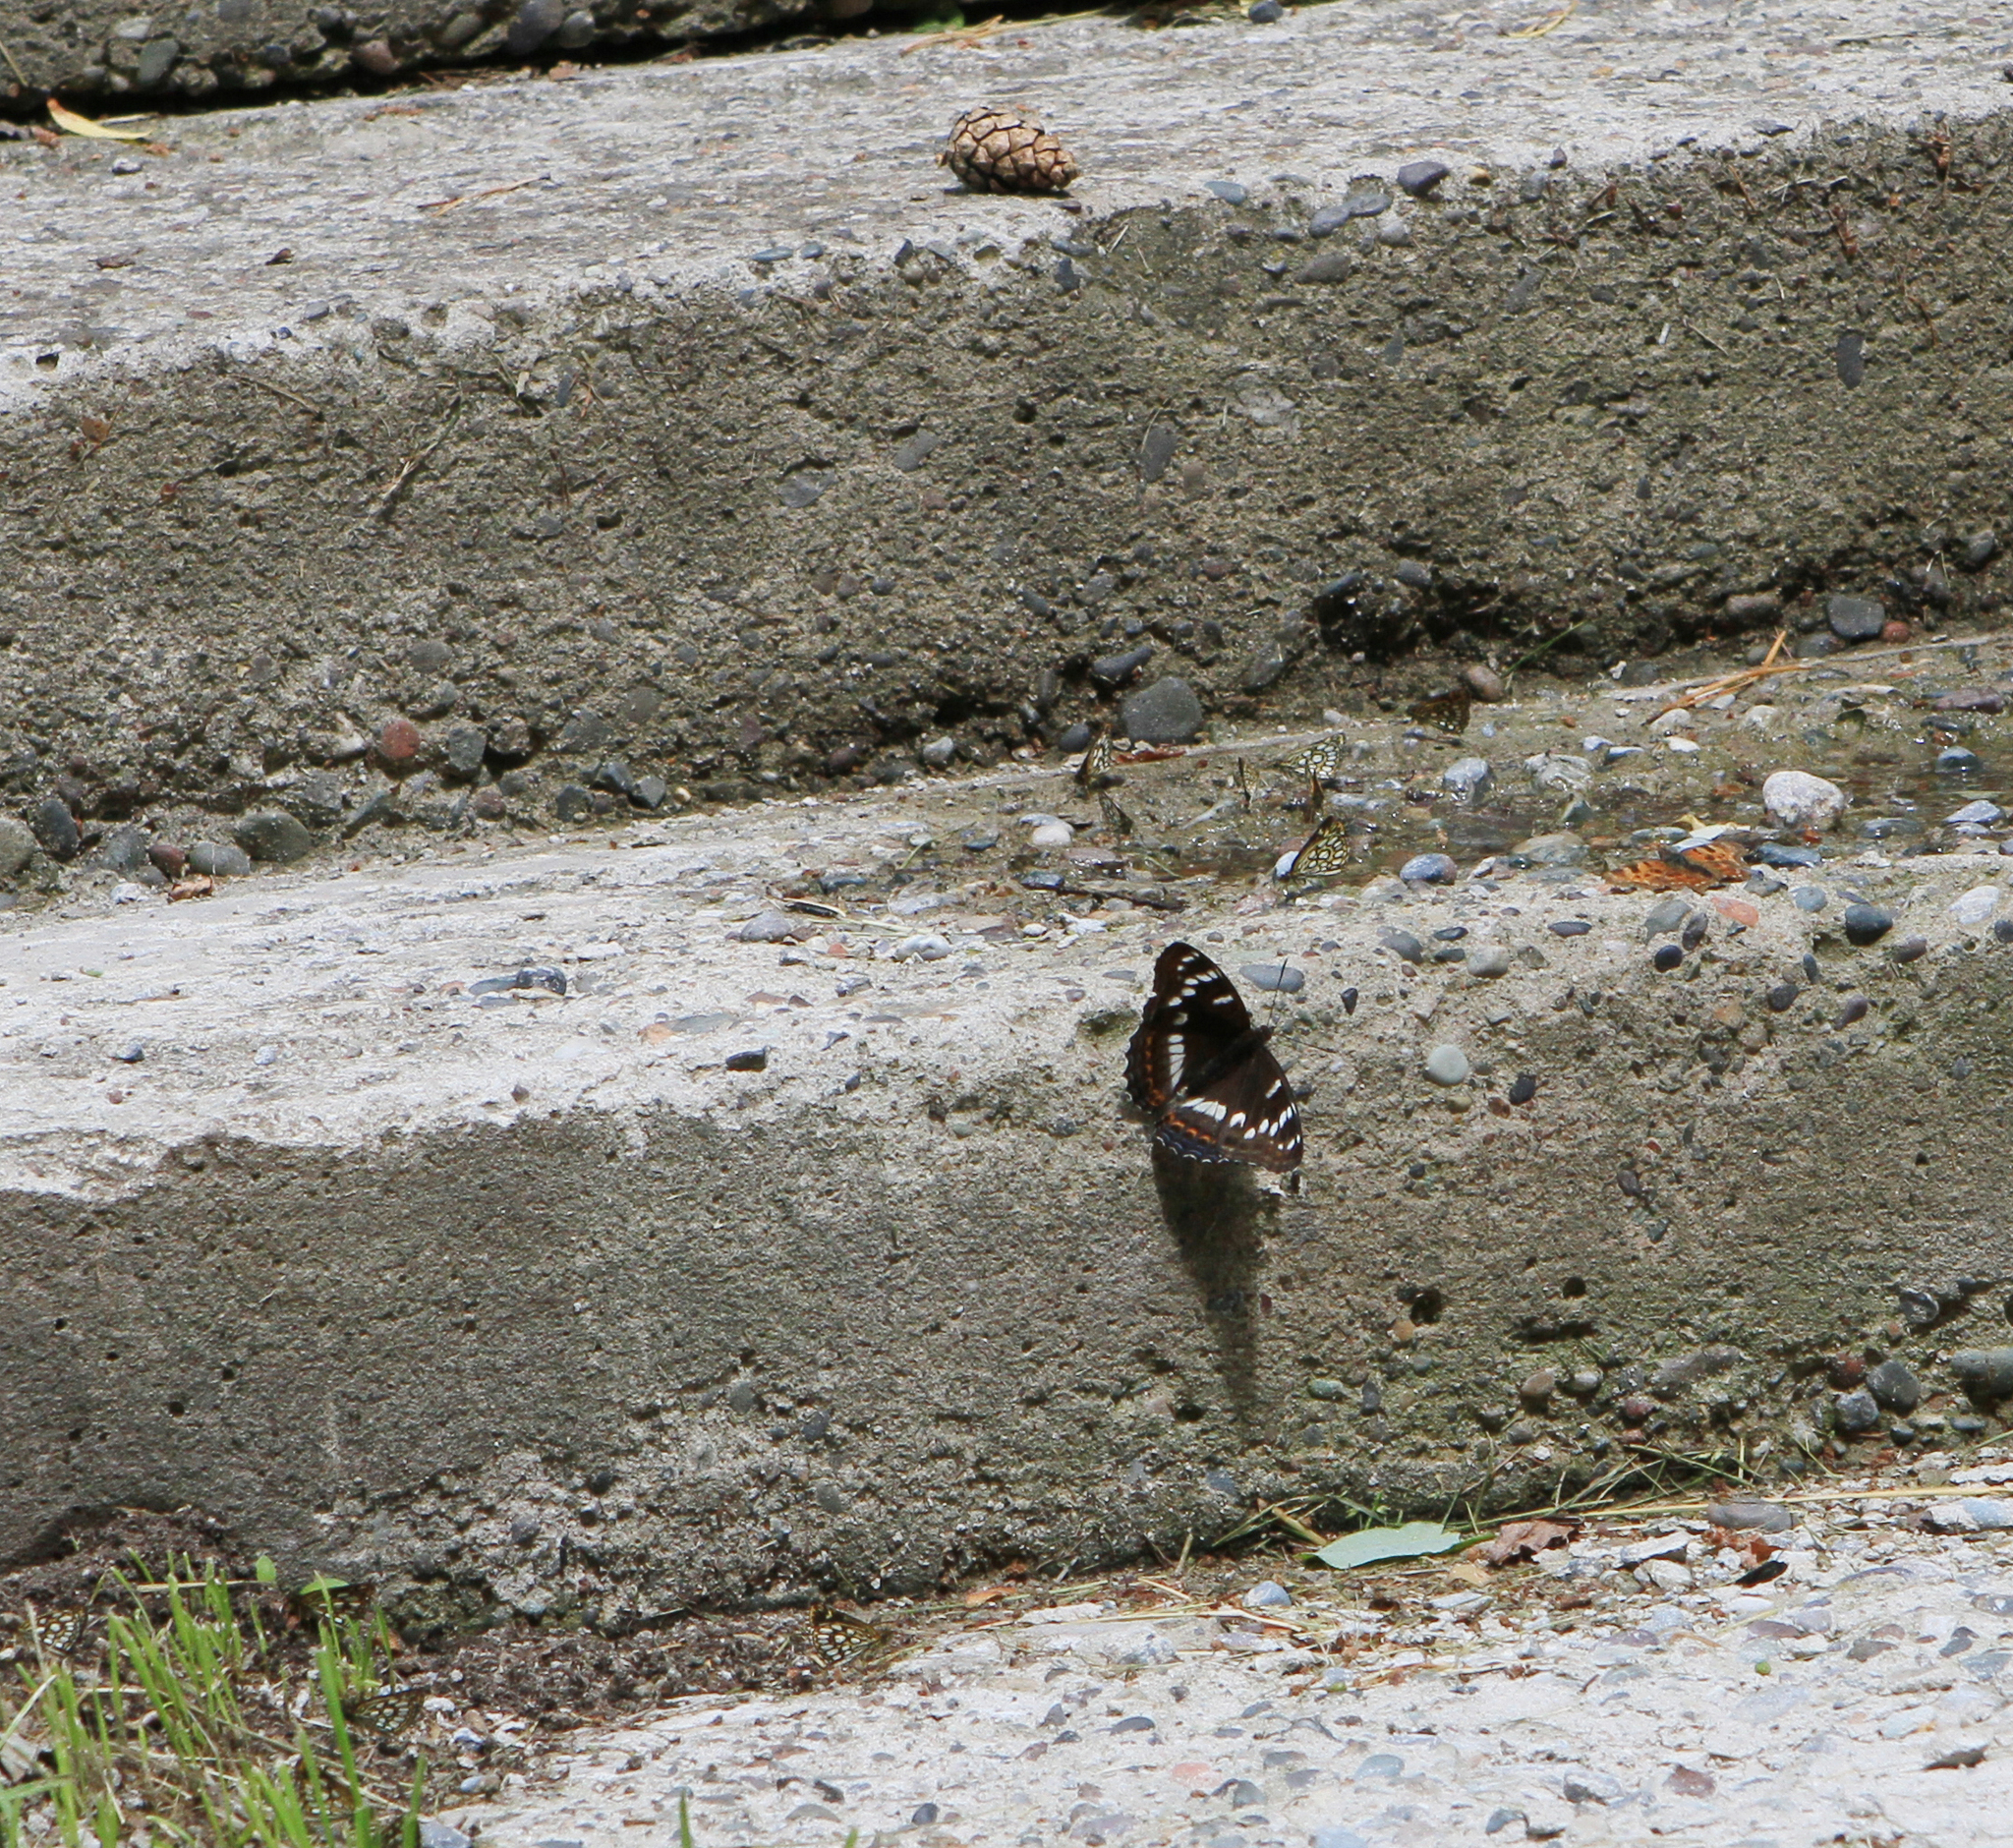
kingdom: Animalia
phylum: Arthropoda
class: Insecta
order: Lepidoptera
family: Nymphalidae
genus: Limenitis
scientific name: Limenitis populi
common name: Poplar admiral
